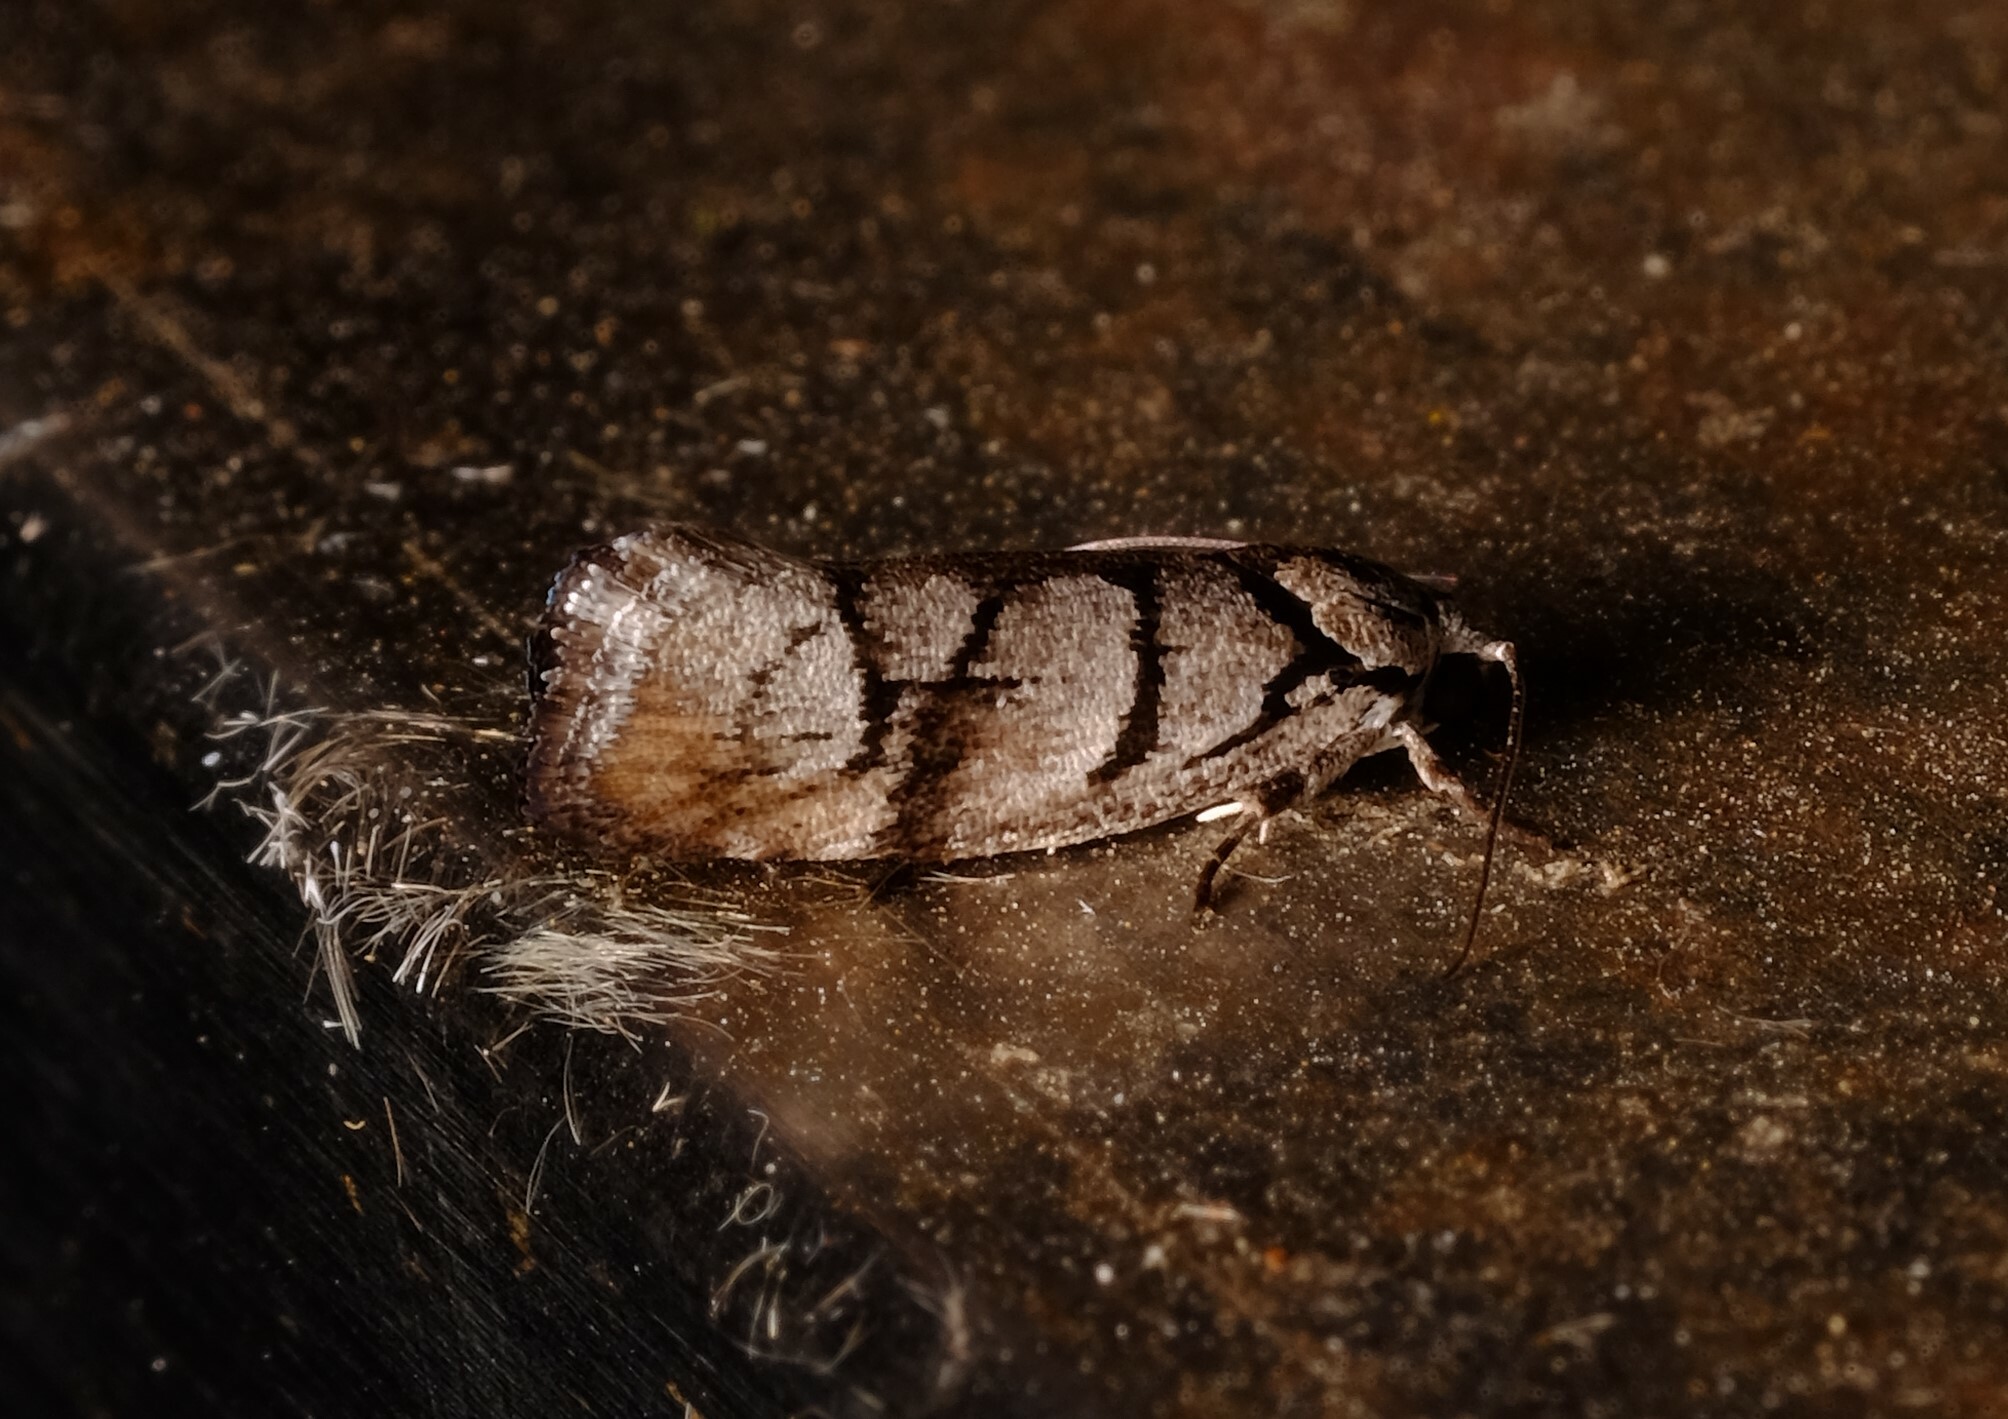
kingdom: Animalia
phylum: Arthropoda
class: Insecta
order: Lepidoptera
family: Xyloryctidae
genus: Illidgea
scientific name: Illidgea
